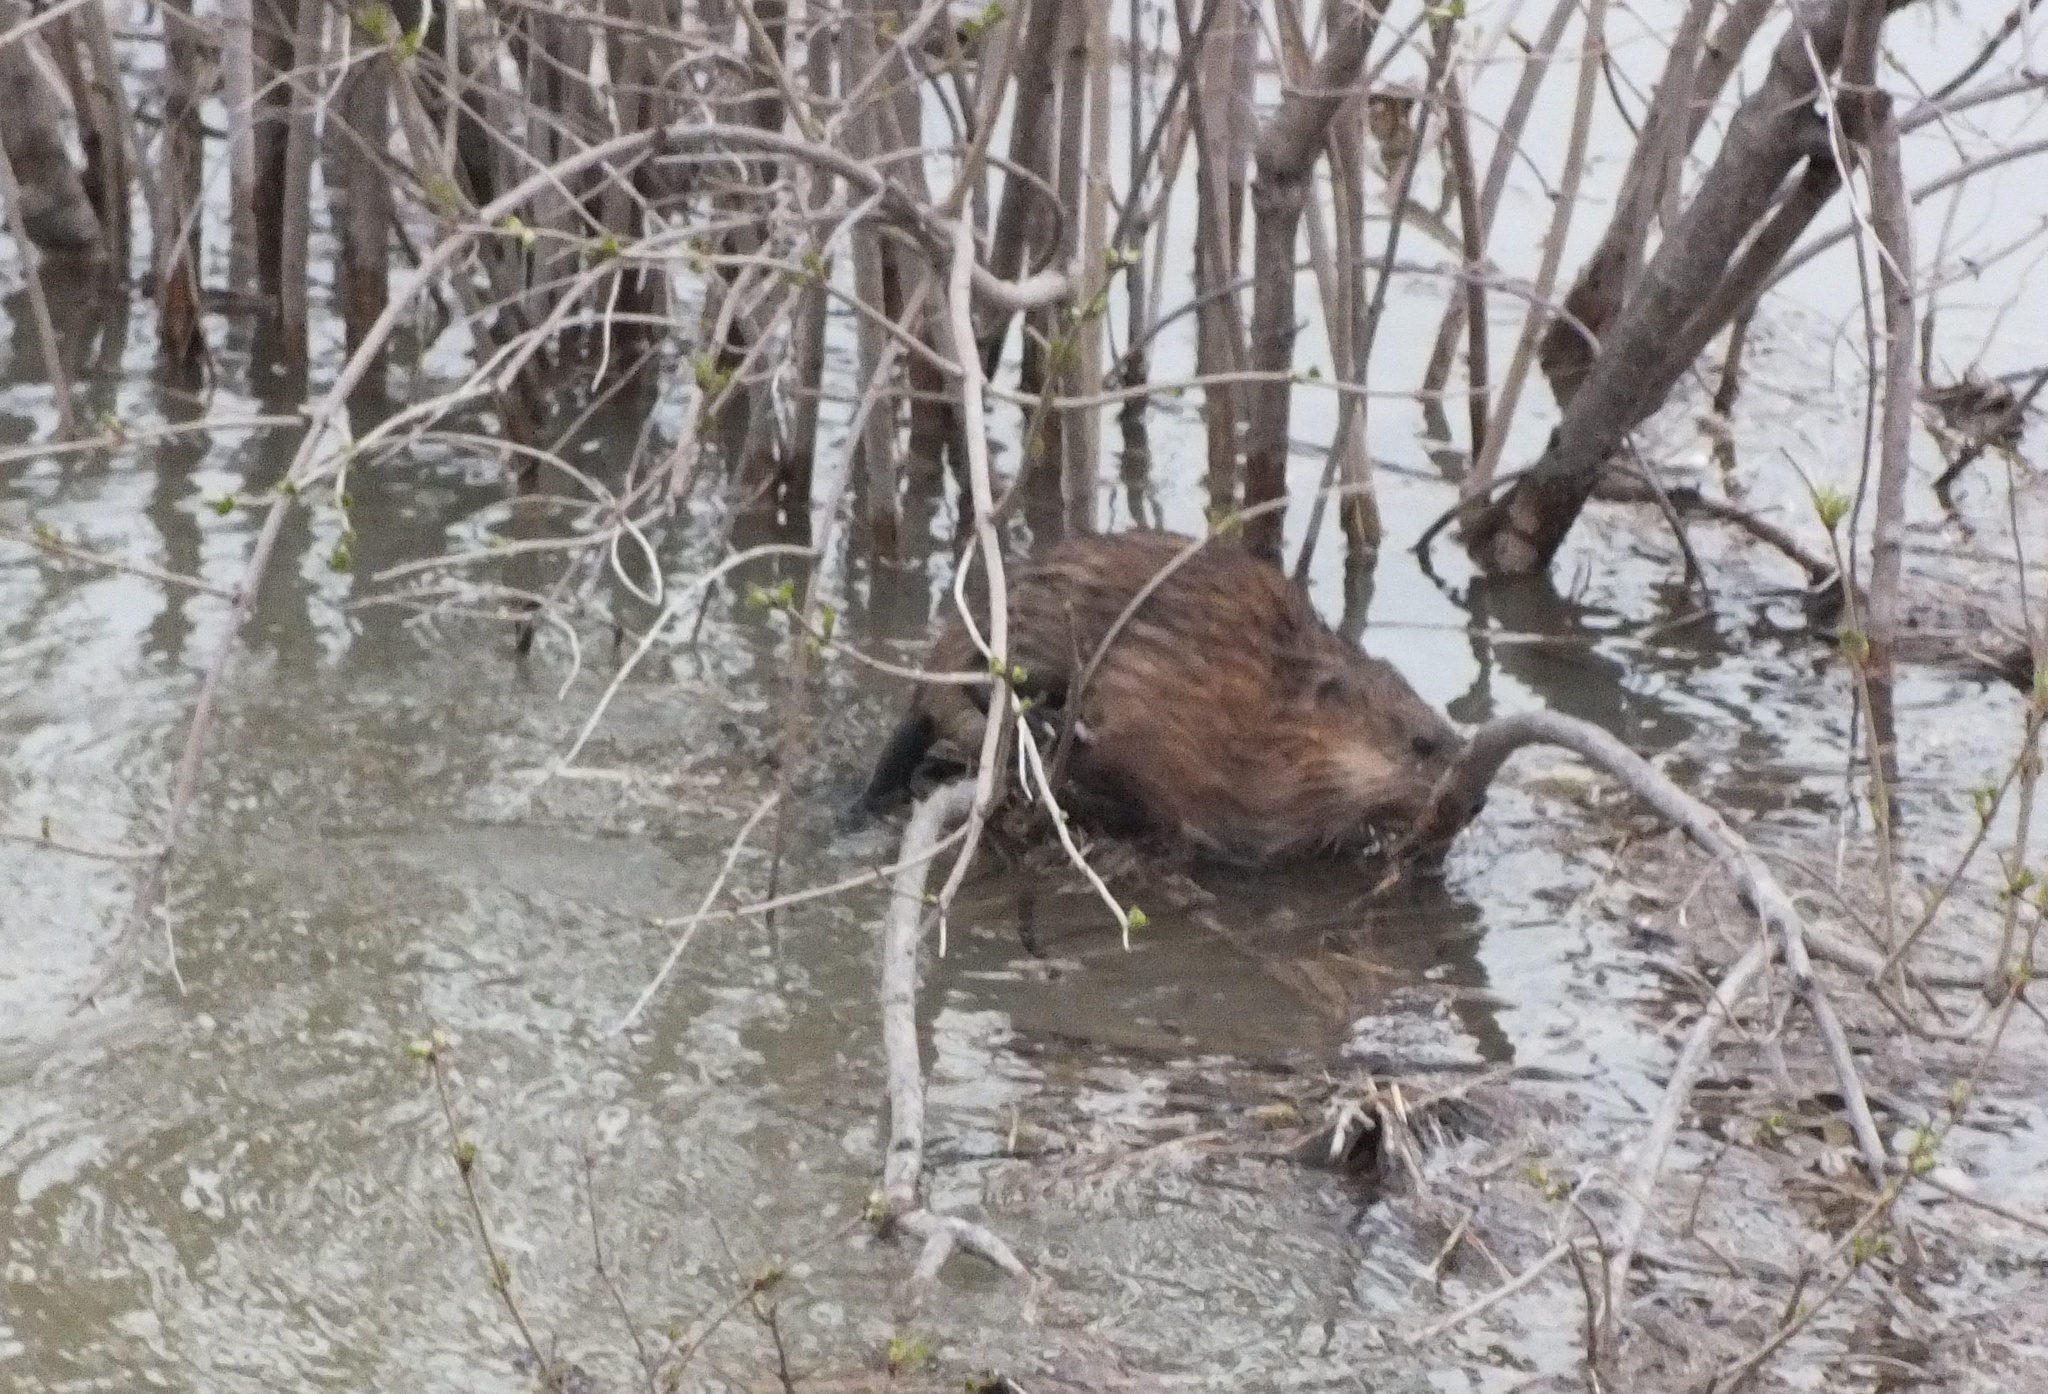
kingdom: Animalia
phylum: Chordata
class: Mammalia
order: Rodentia
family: Cricetidae
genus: Ondatra
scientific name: Ondatra zibethicus
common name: Muskrat
